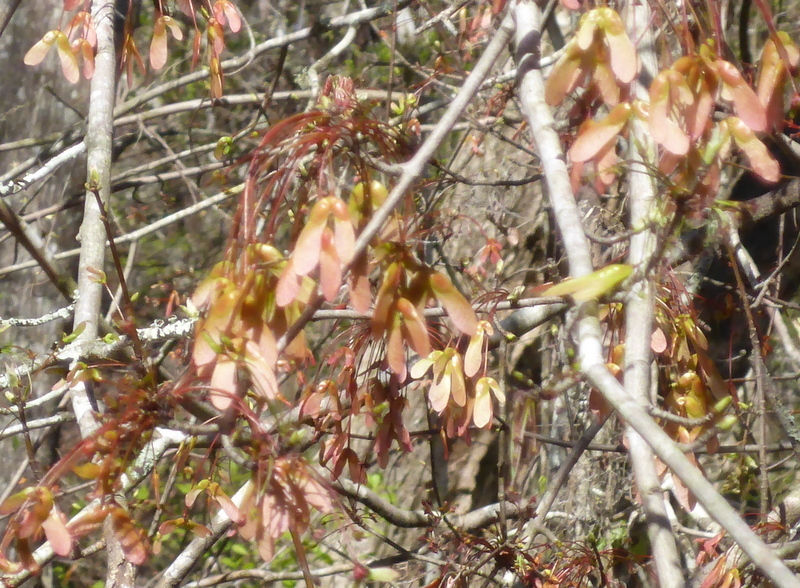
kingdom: Plantae
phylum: Tracheophyta
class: Magnoliopsida
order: Sapindales
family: Sapindaceae
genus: Acer
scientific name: Acer rubrum
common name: Red maple
